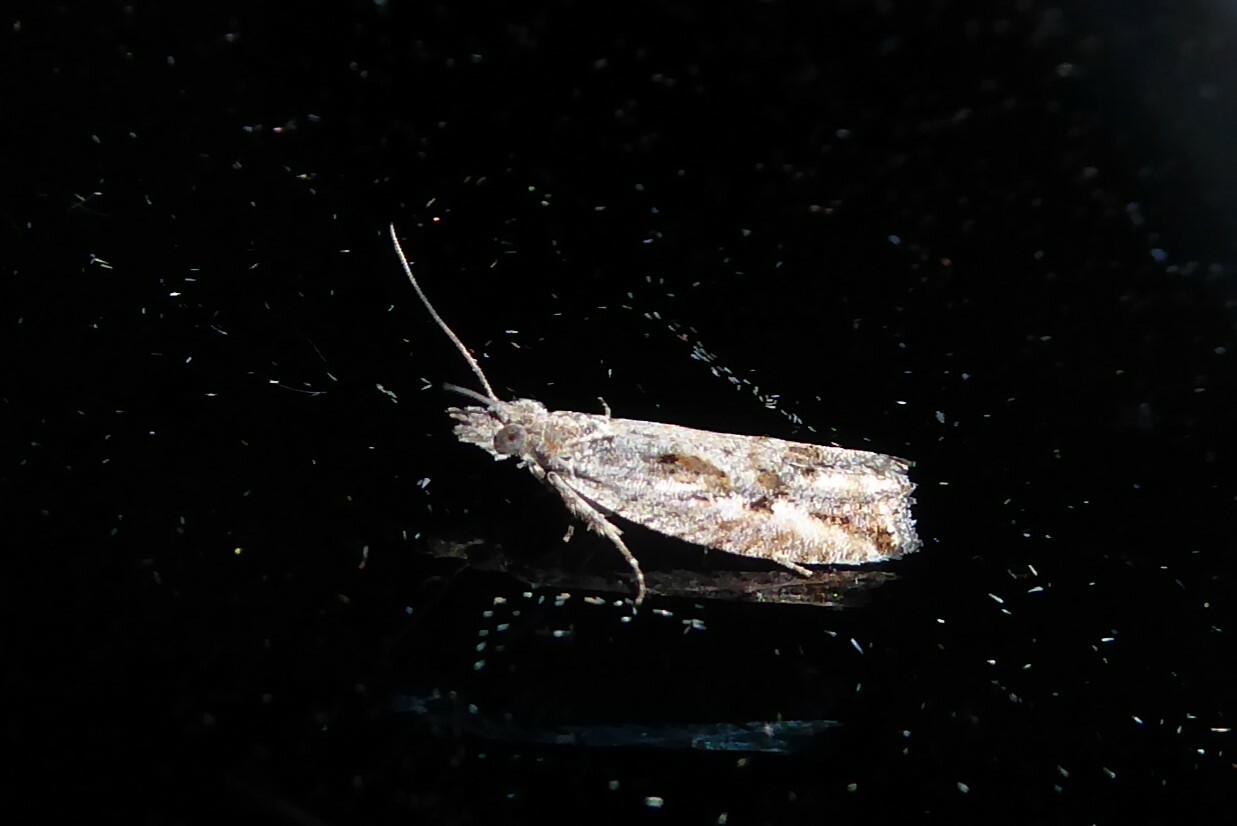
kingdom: Animalia
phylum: Arthropoda
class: Insecta
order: Lepidoptera
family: Tortricidae
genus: Strepsicrates
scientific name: Strepsicrates ejectana
